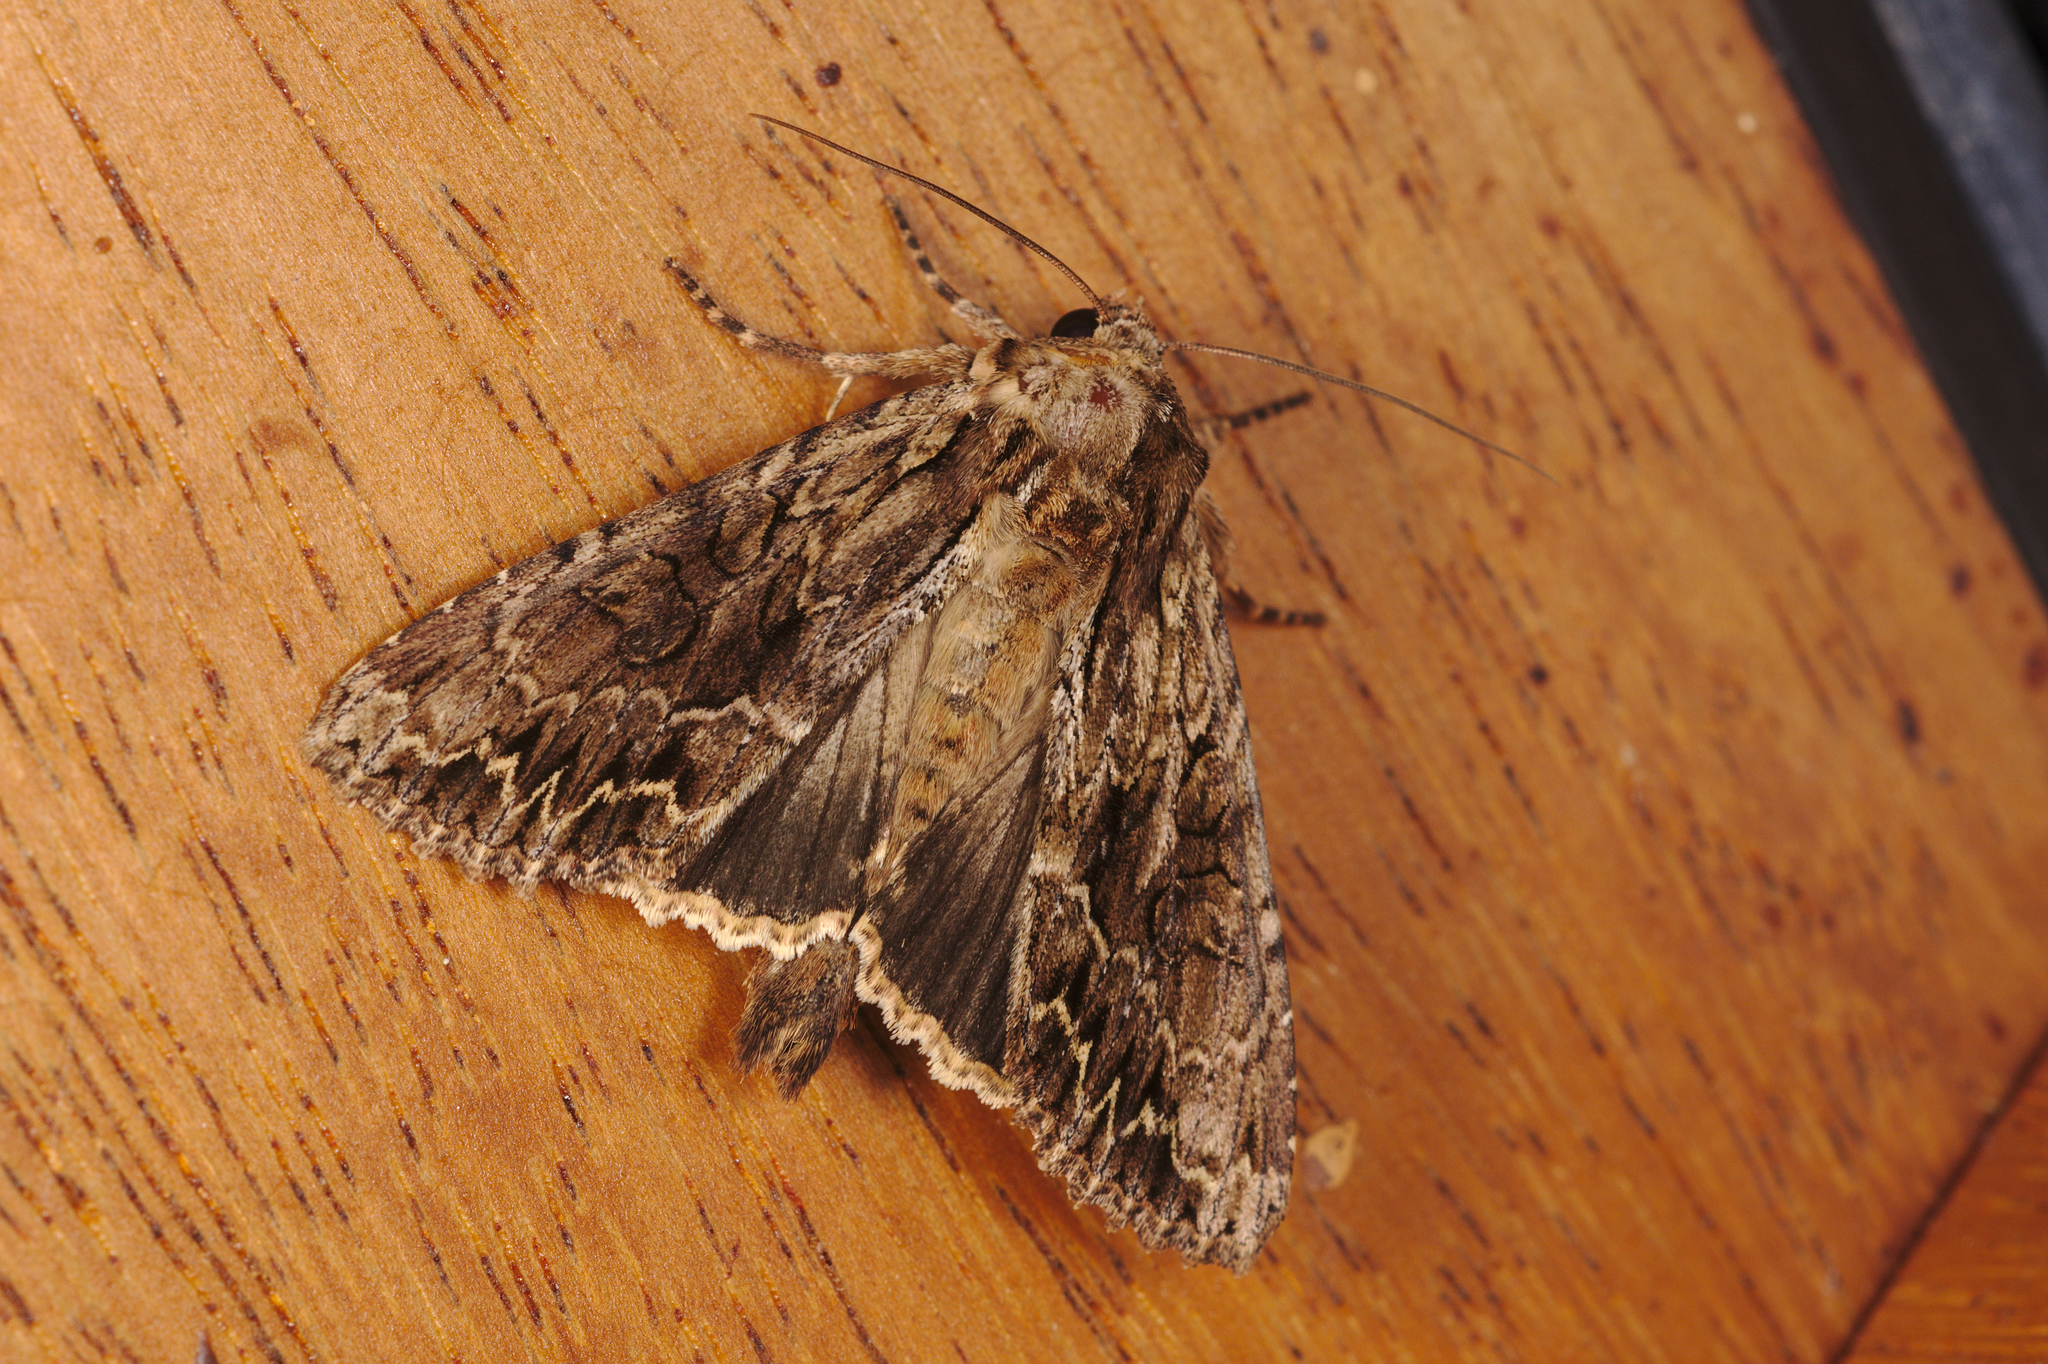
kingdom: Animalia
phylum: Arthropoda
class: Insecta
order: Lepidoptera
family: Noctuidae
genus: Apamea
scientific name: Apamea monoglypha
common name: Dark arches
